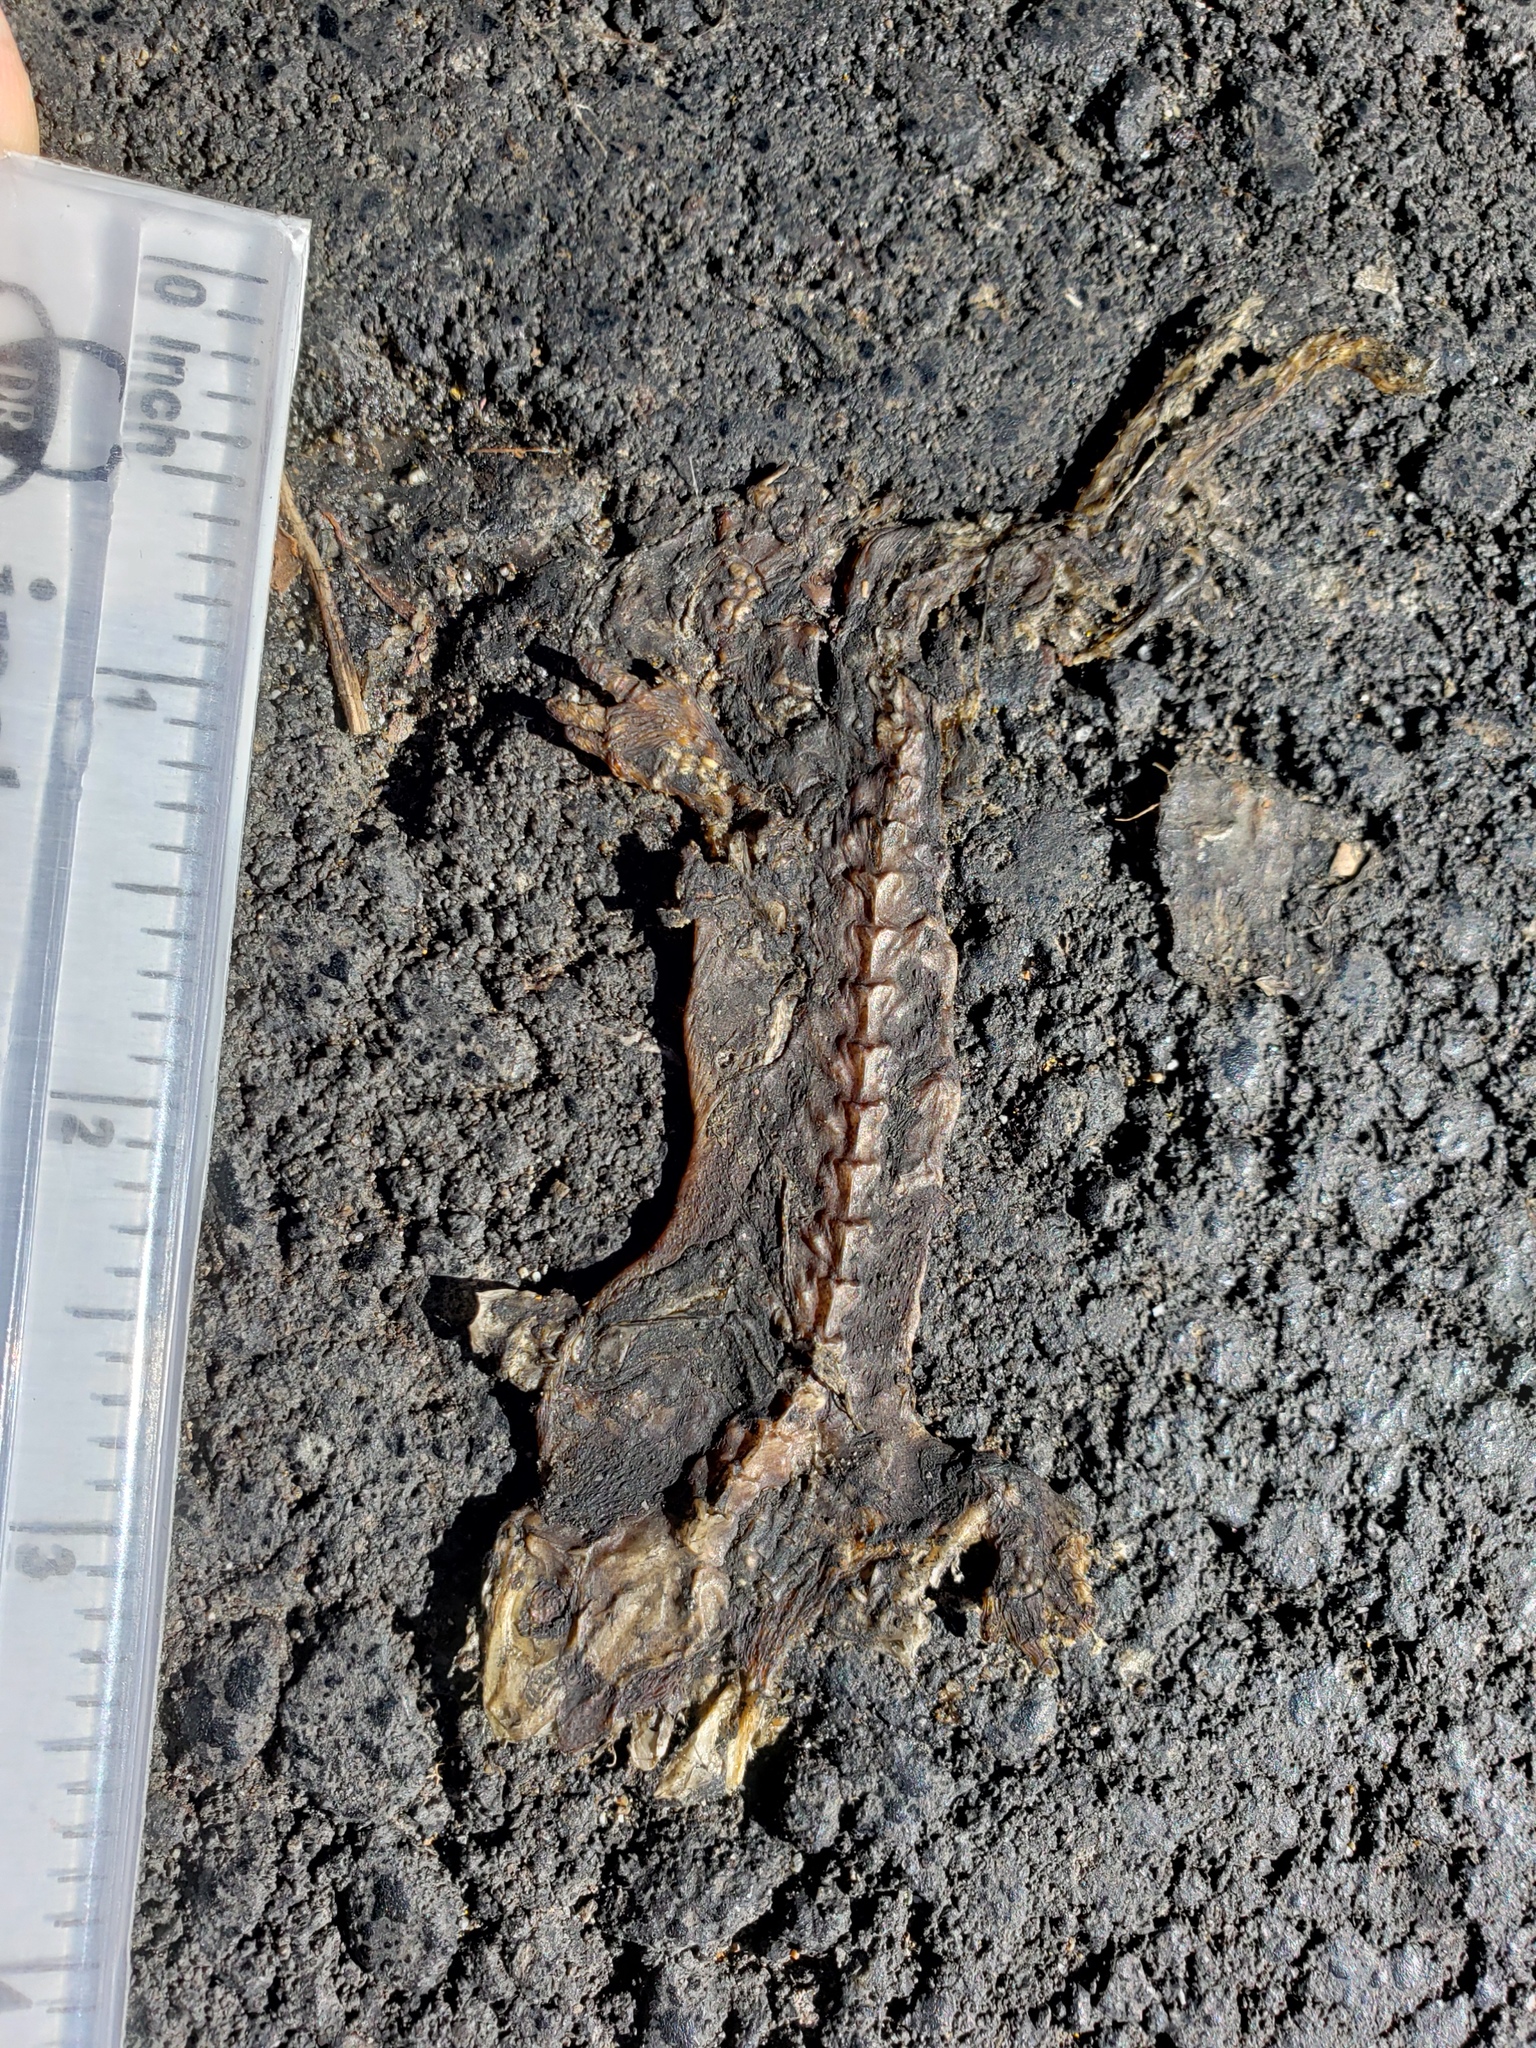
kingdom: Animalia
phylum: Chordata
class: Amphibia
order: Caudata
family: Salamandridae
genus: Taricha
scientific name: Taricha
